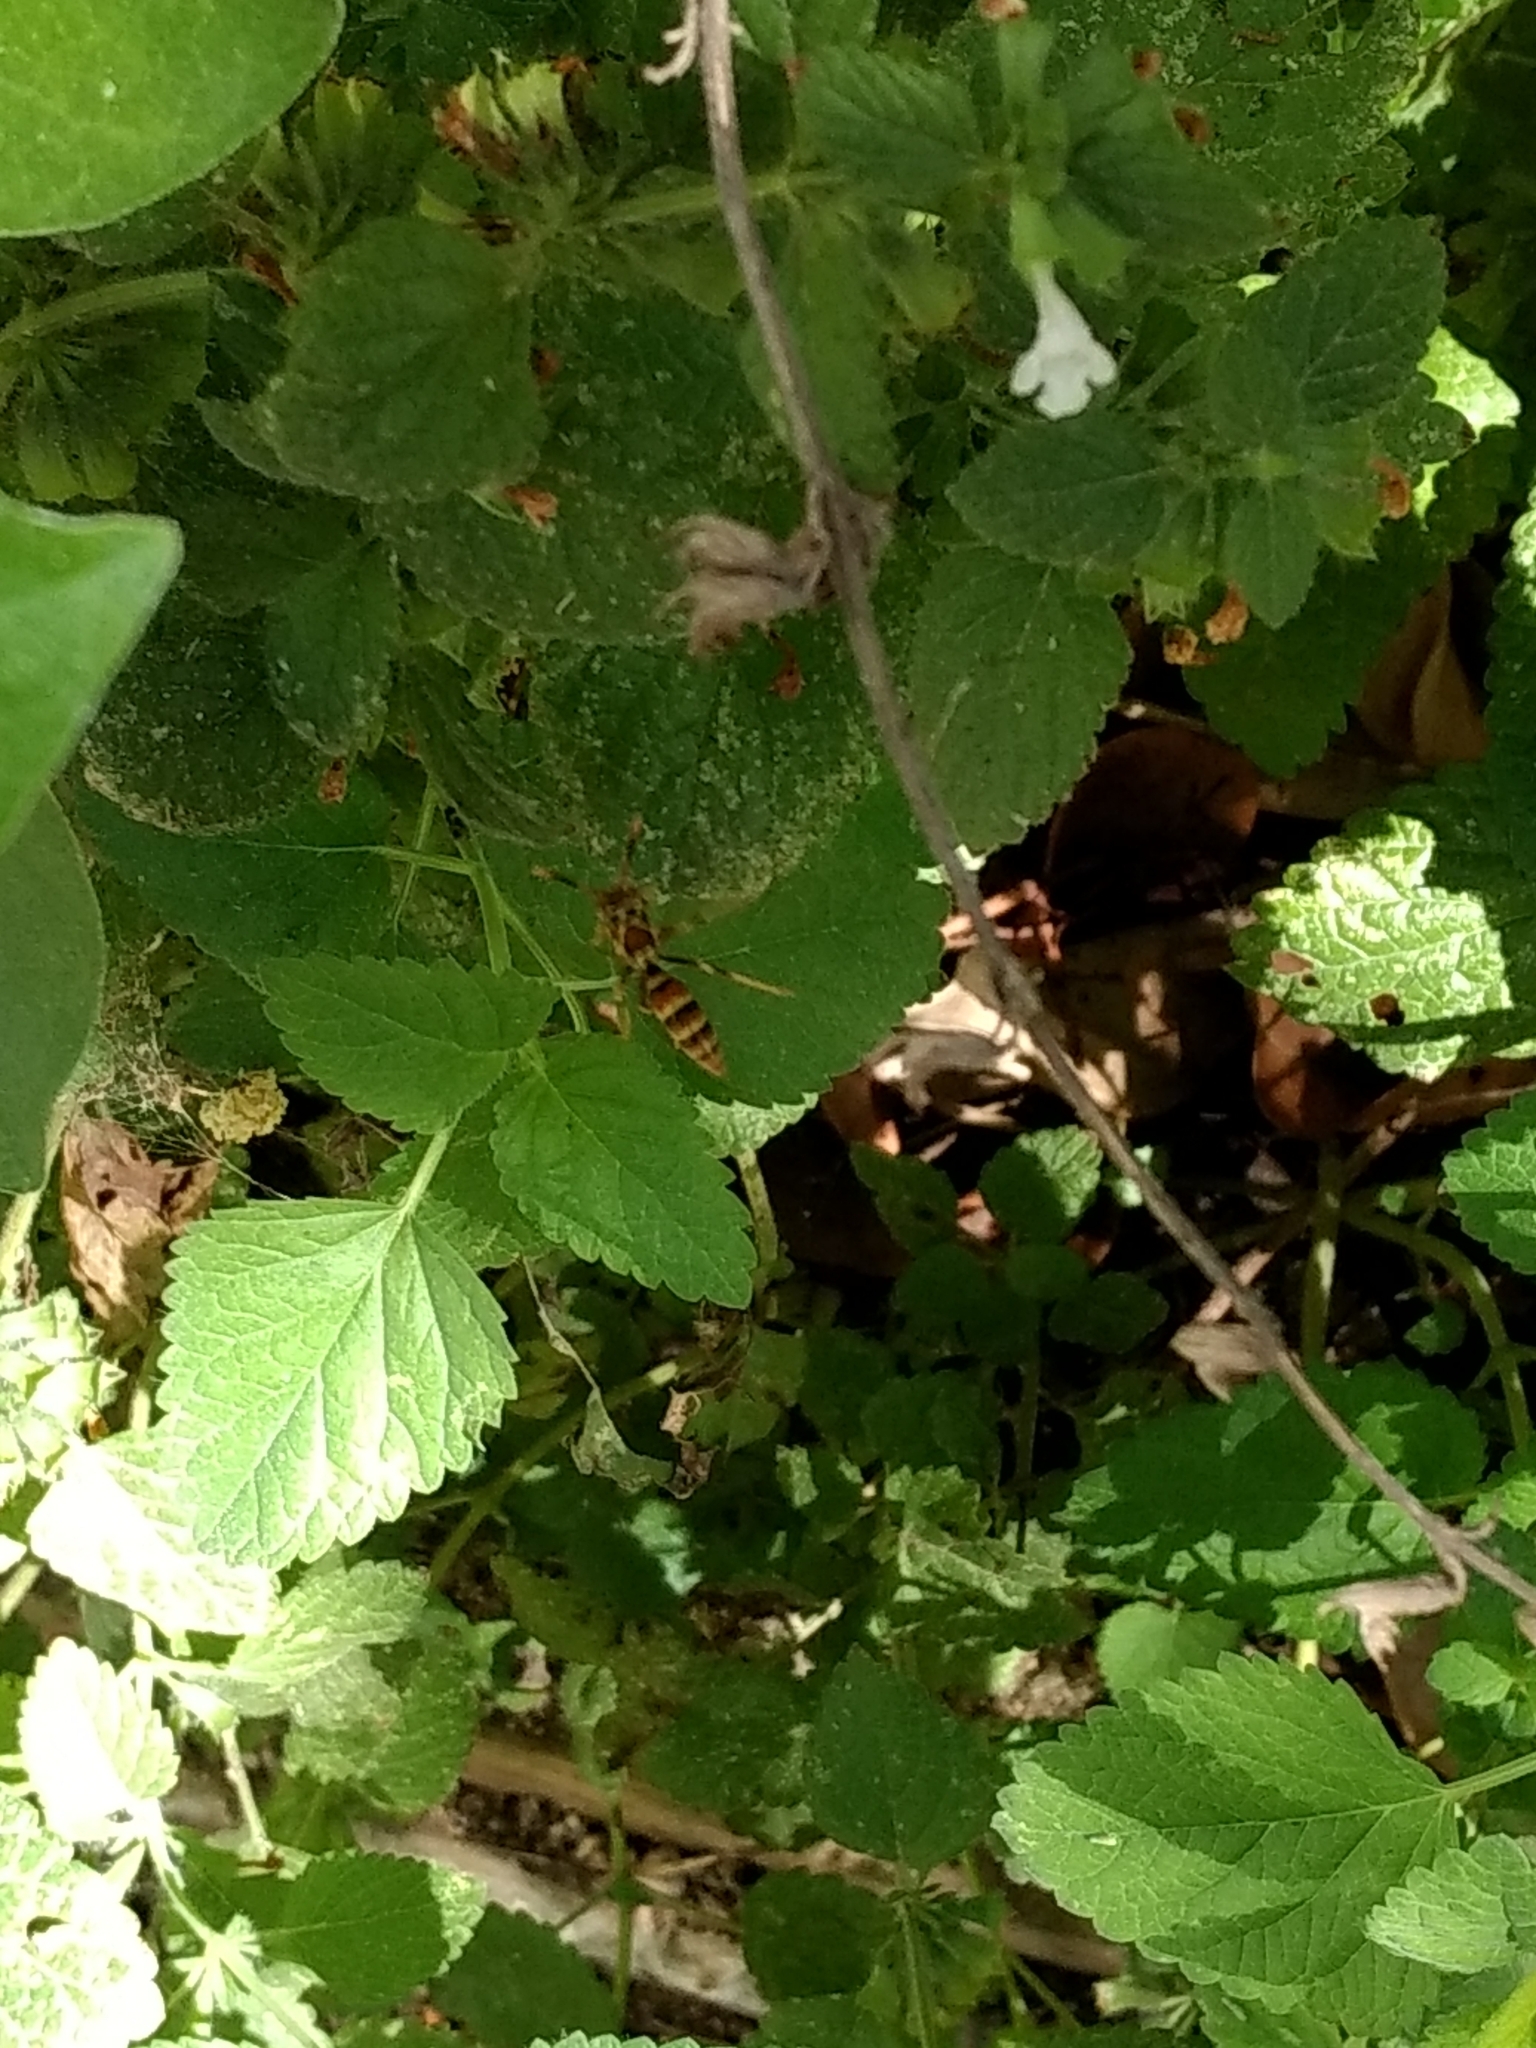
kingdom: Animalia
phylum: Arthropoda
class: Insecta
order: Hymenoptera
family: Eumenidae
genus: Polistes
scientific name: Polistes exclamans
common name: Paper wasp
